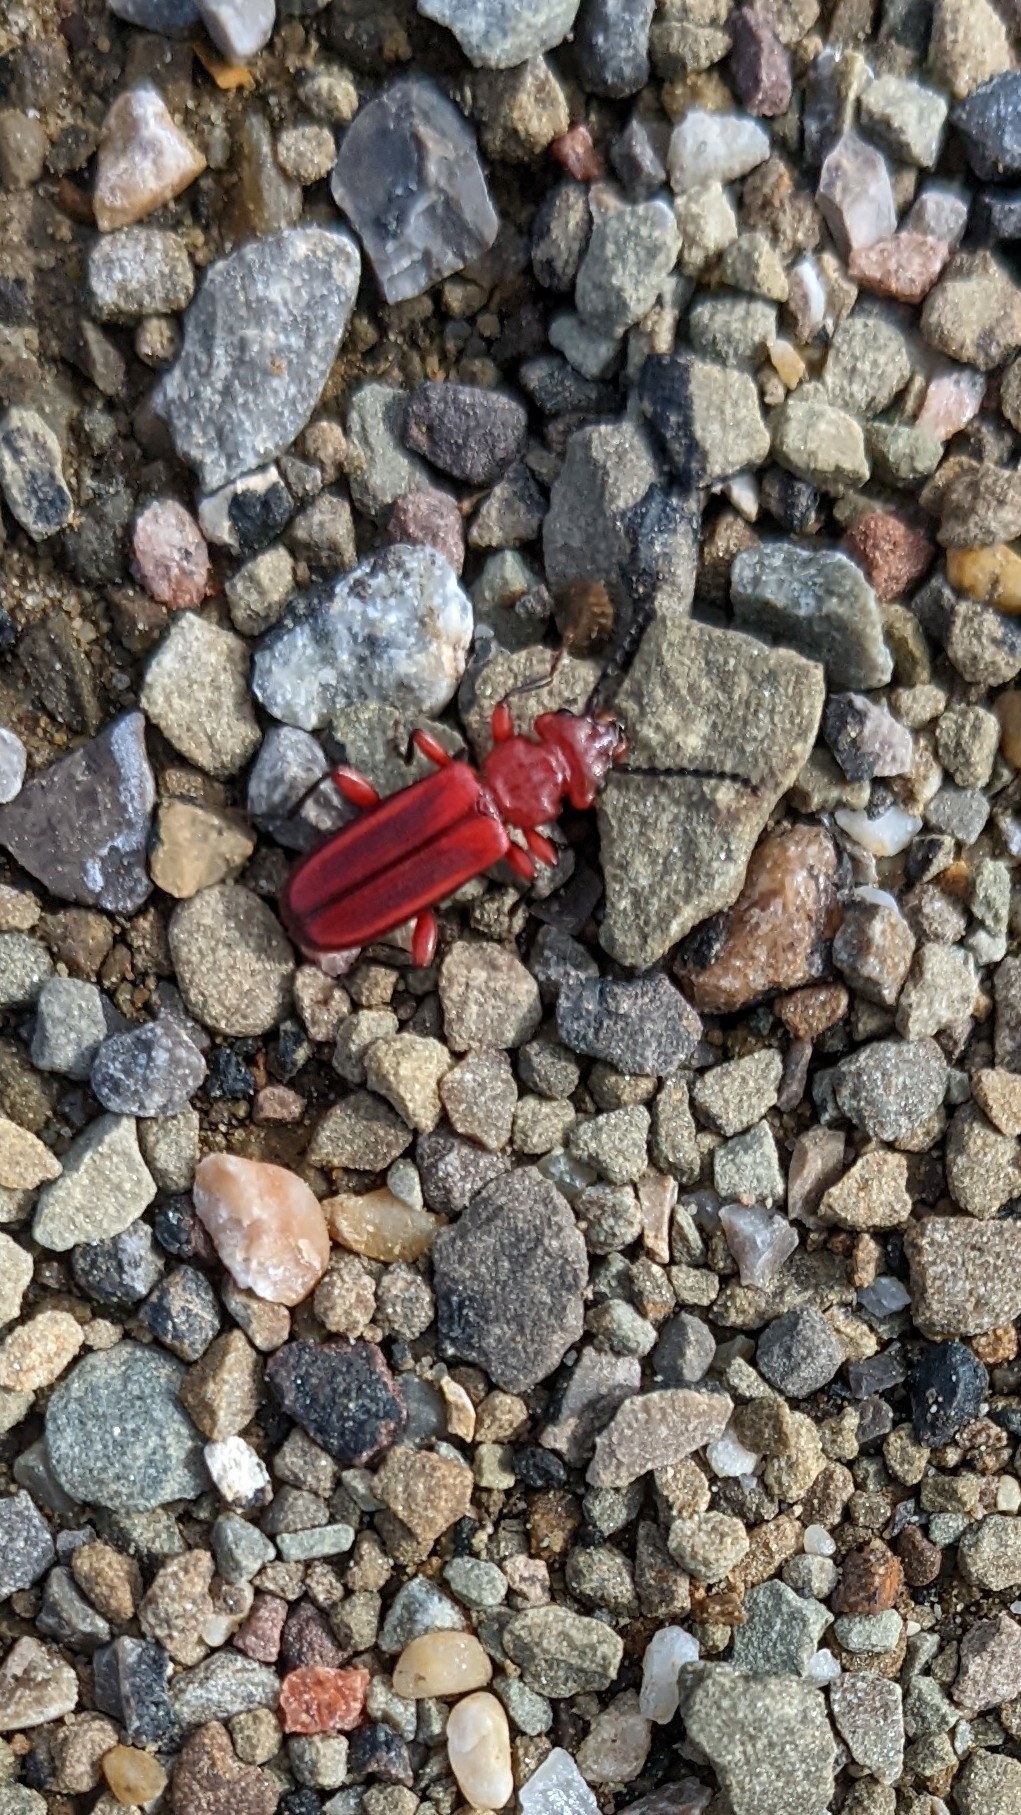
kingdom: Animalia
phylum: Arthropoda
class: Insecta
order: Coleoptera
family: Cucujidae
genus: Cucujus
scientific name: Cucujus clavipes
